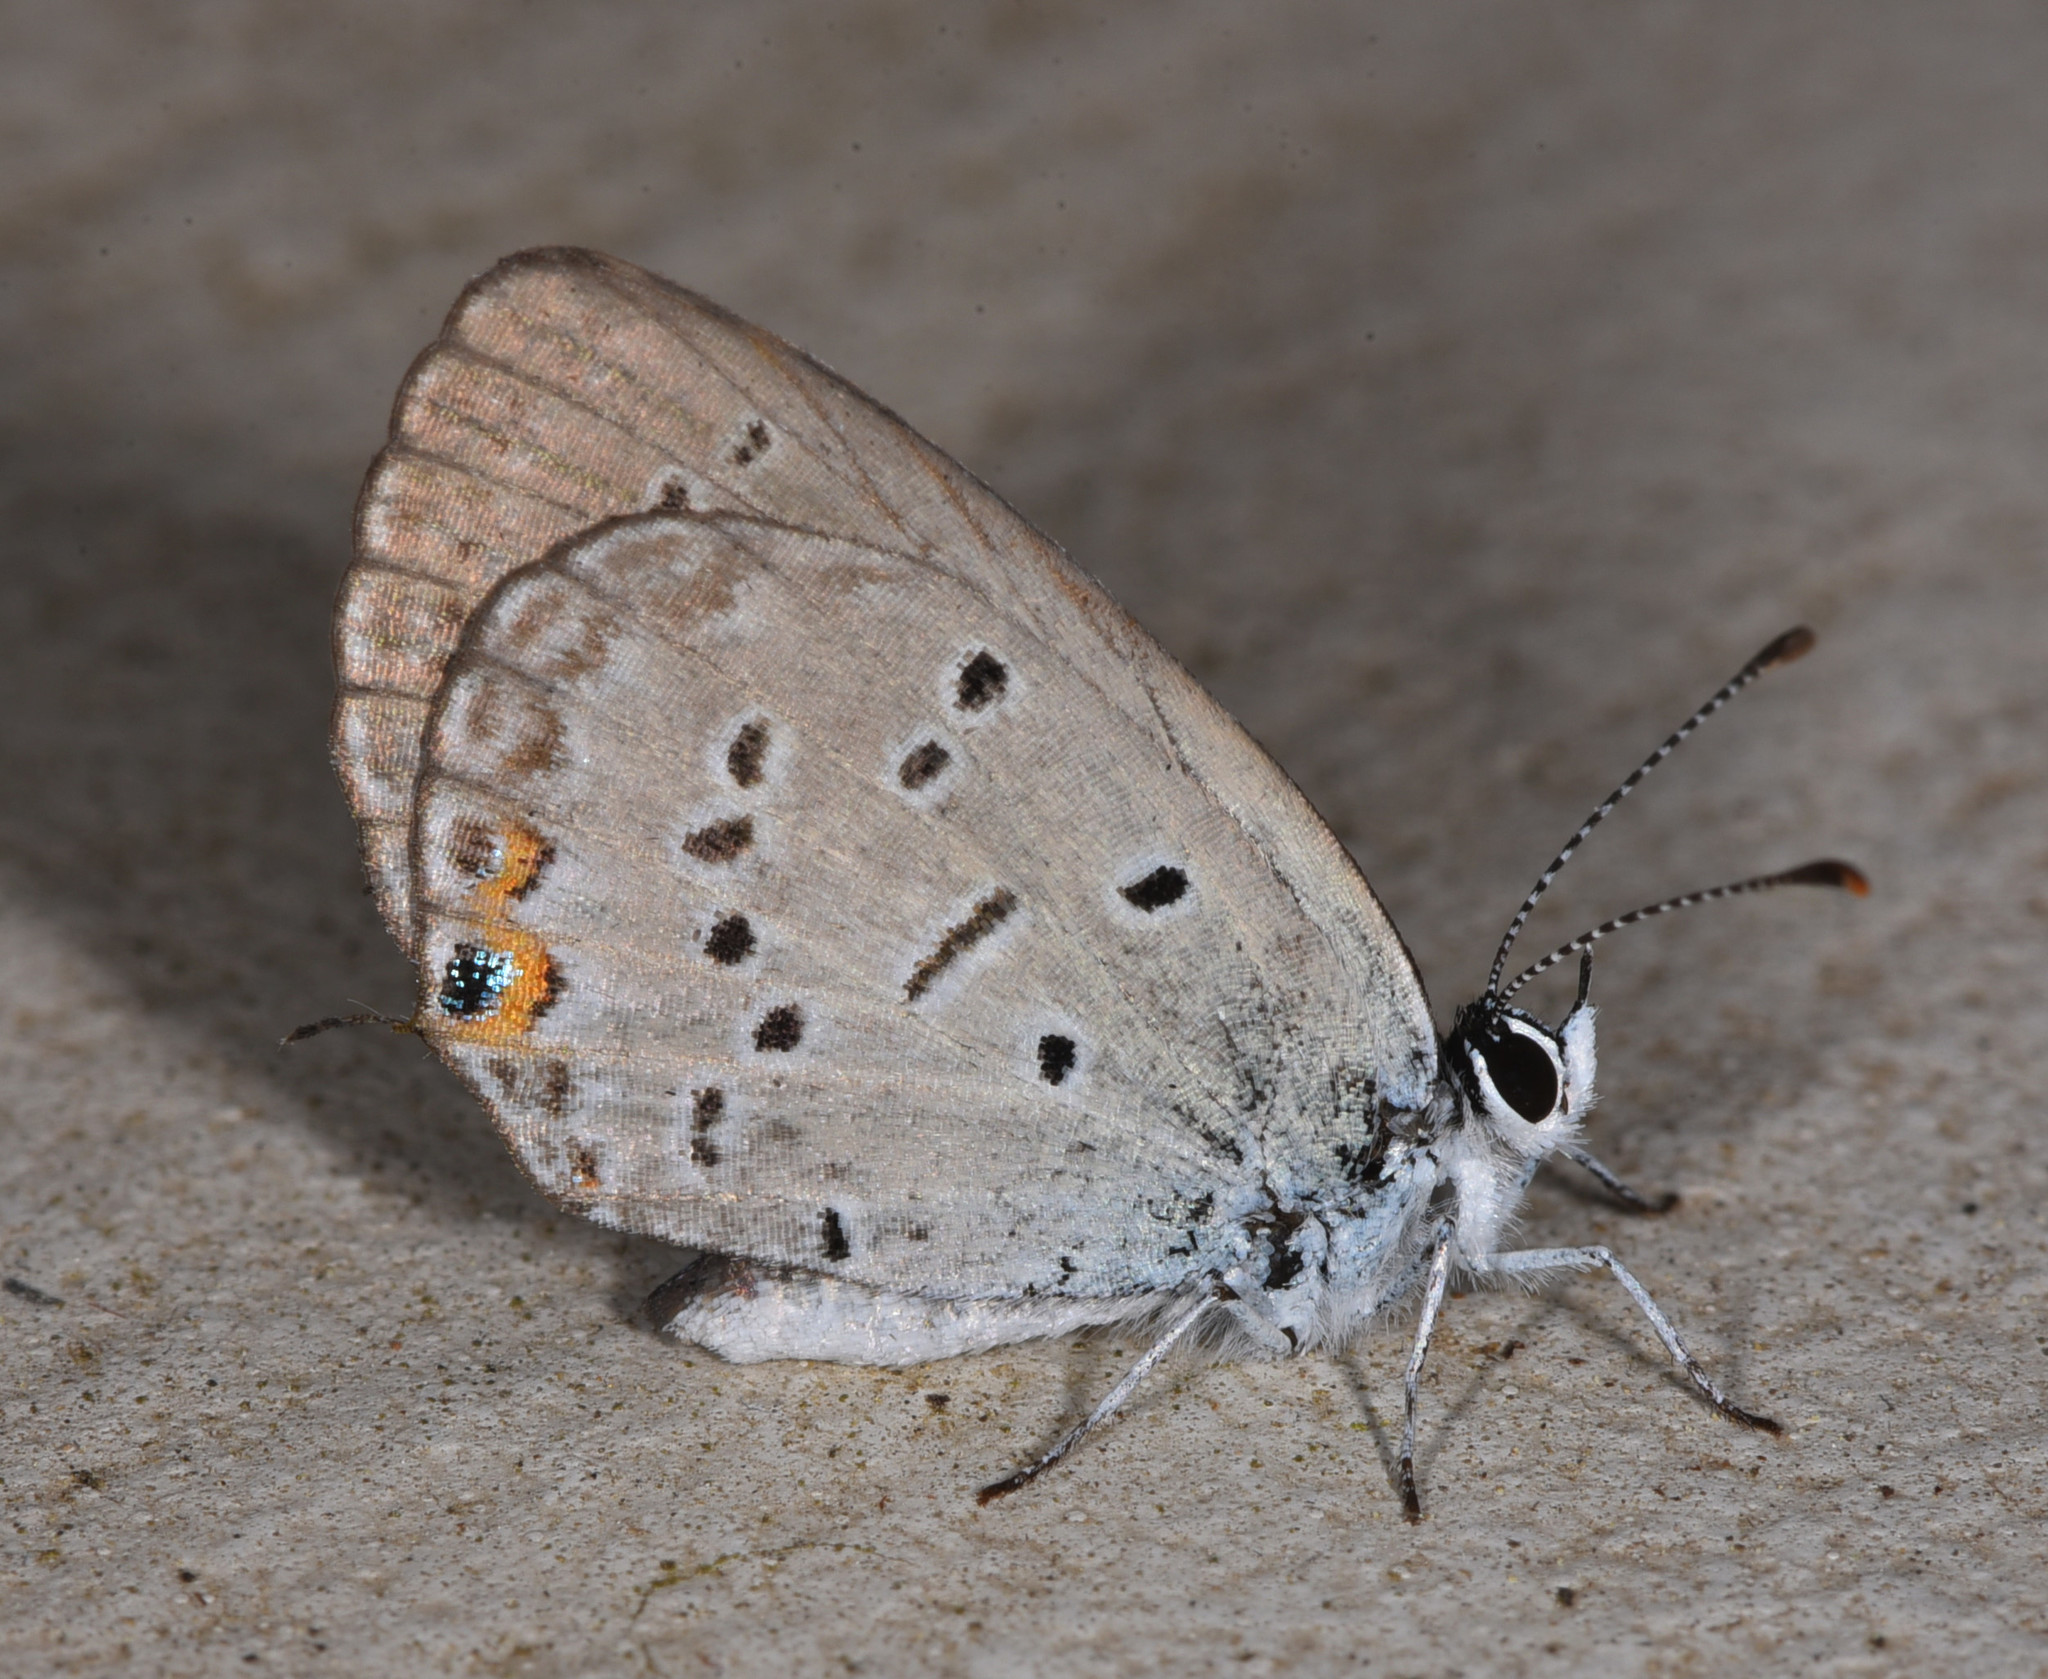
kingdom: Animalia
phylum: Arthropoda
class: Insecta
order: Lepidoptera
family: Lycaenidae
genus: Elkalyce
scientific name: Elkalyce comyntas
